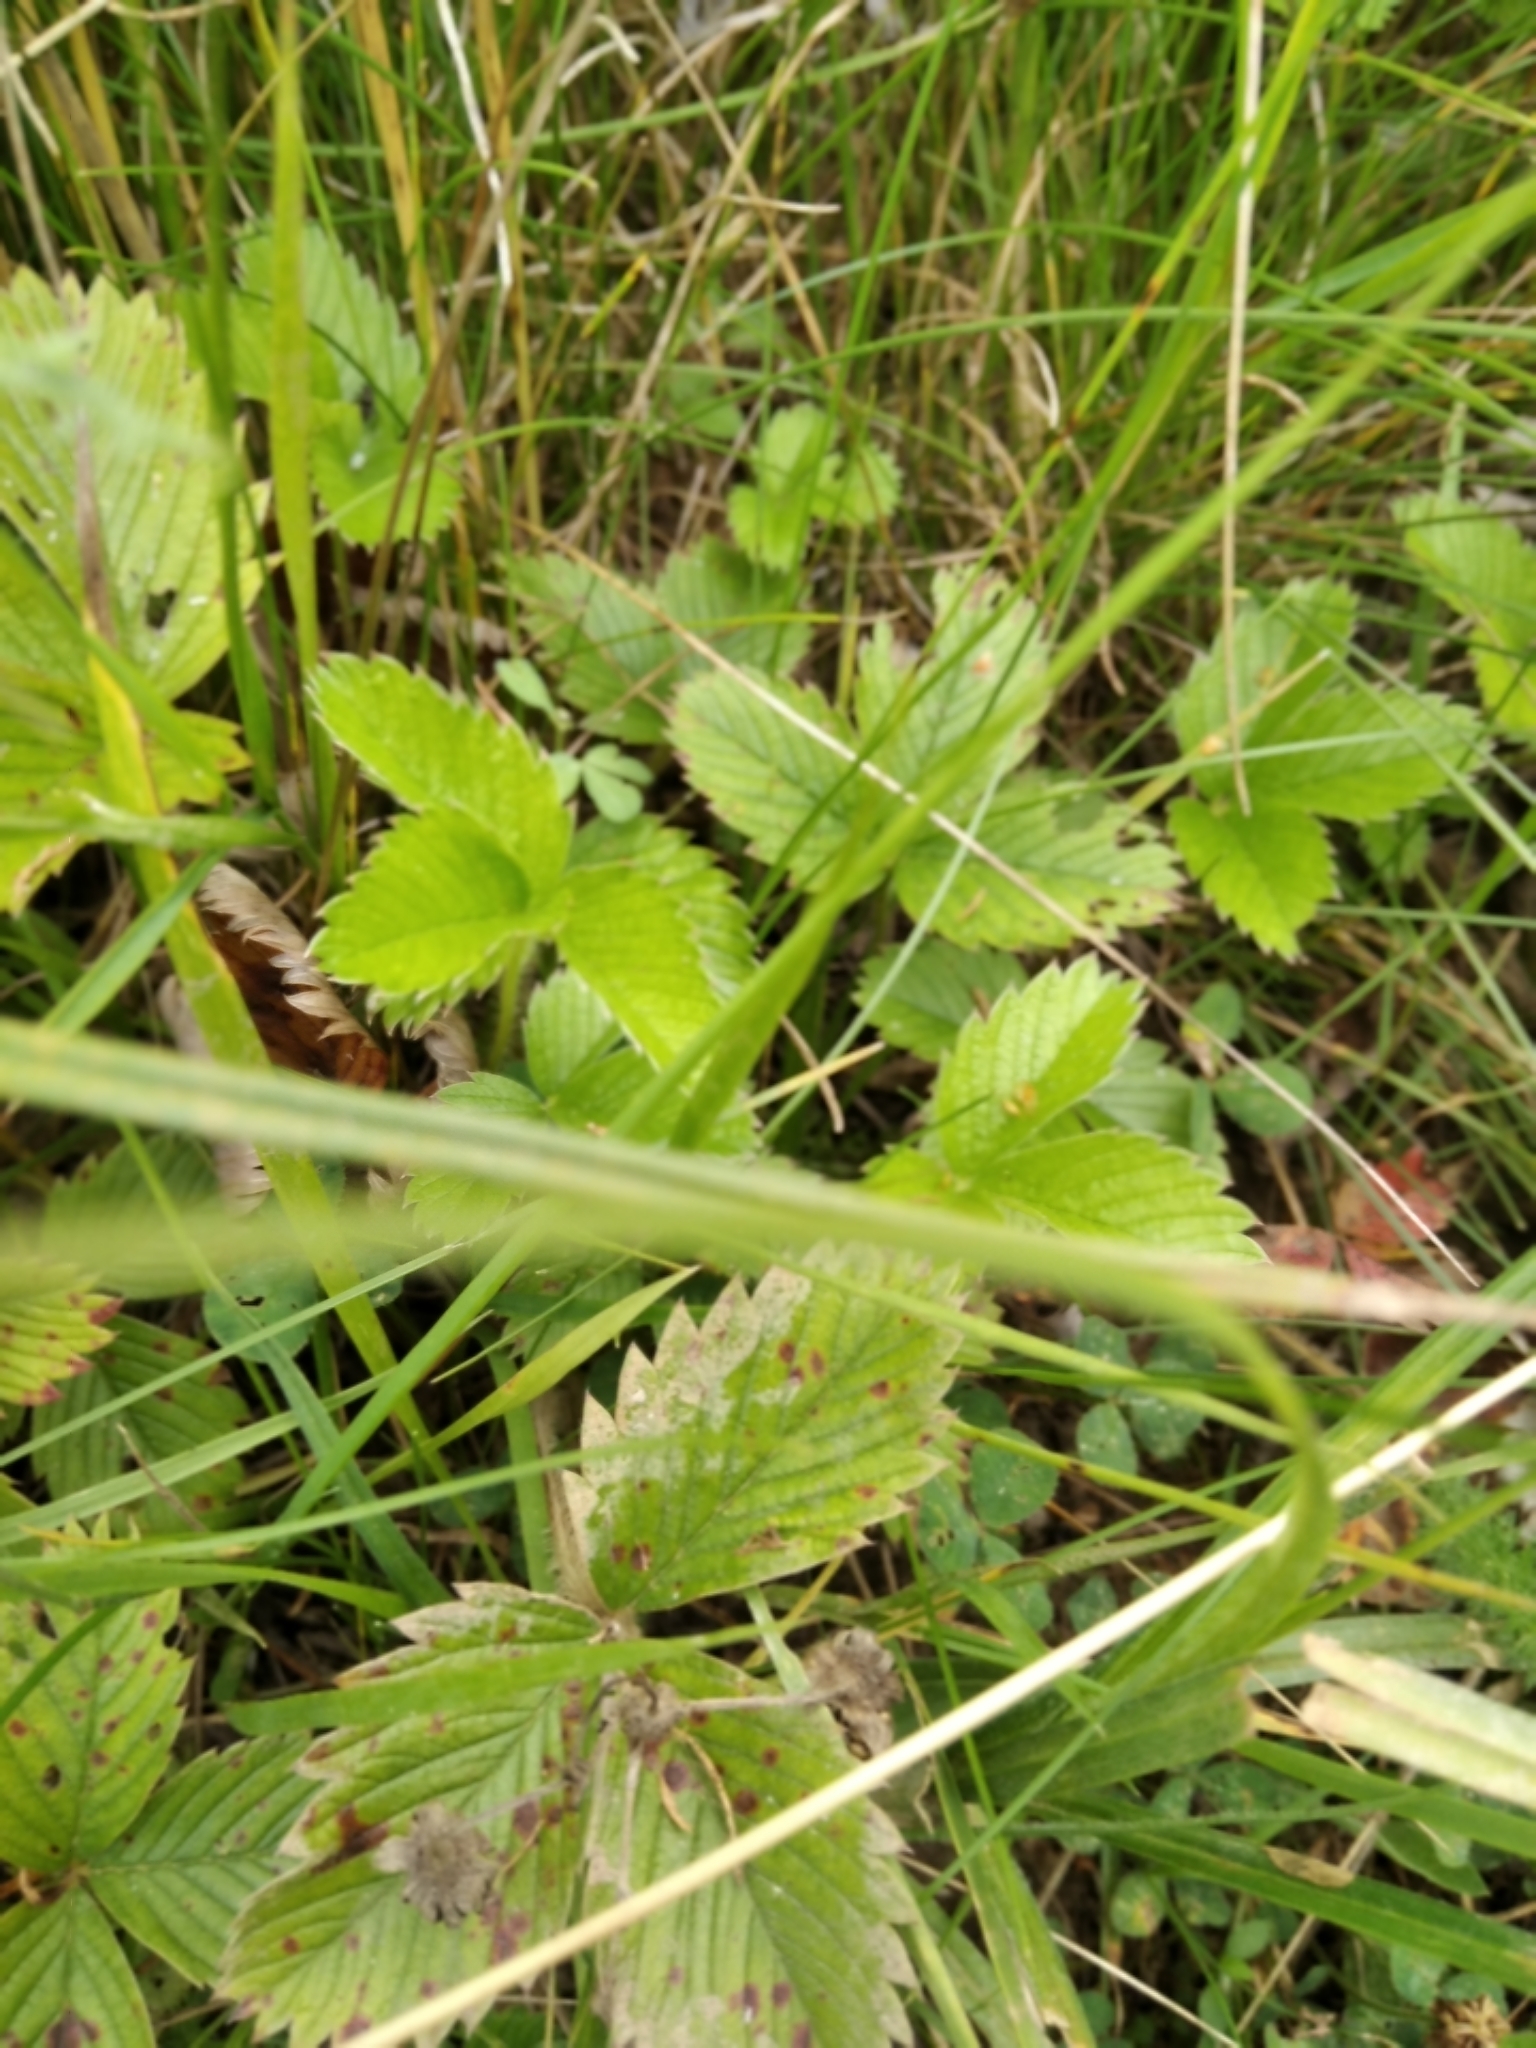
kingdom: Plantae
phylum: Tracheophyta
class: Magnoliopsida
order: Rosales
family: Rosaceae
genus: Fragaria
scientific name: Fragaria viridis
